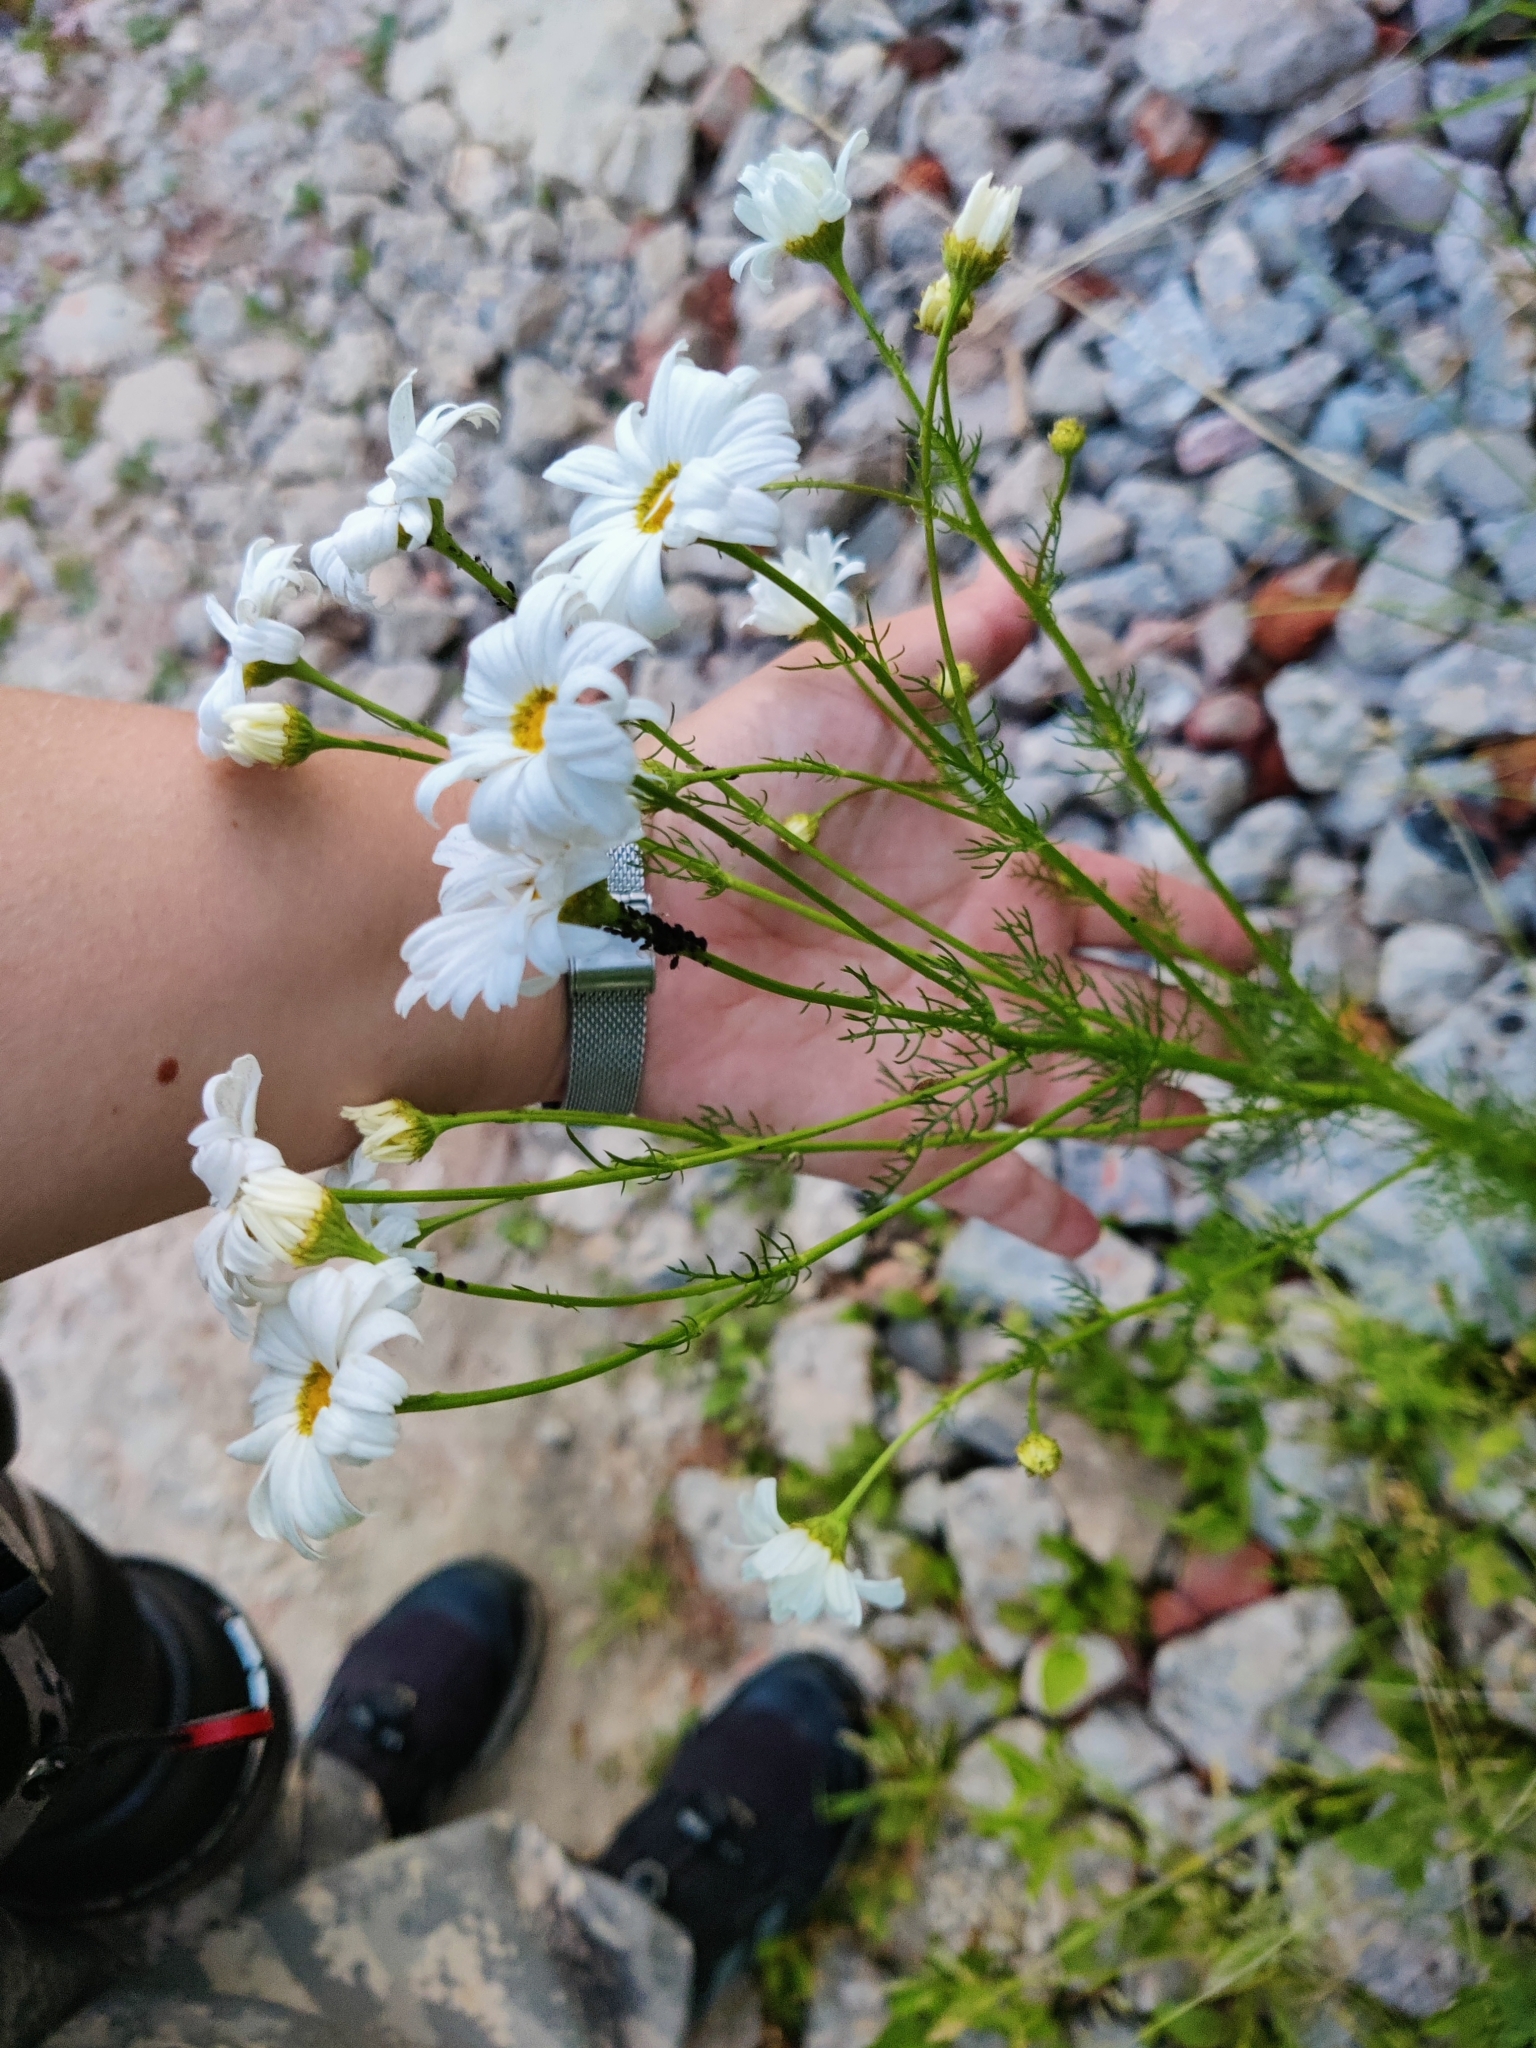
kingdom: Plantae
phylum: Tracheophyta
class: Magnoliopsida
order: Asterales
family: Asteraceae
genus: Tripleurospermum
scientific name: Tripleurospermum inodorum
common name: Scentless mayweed
